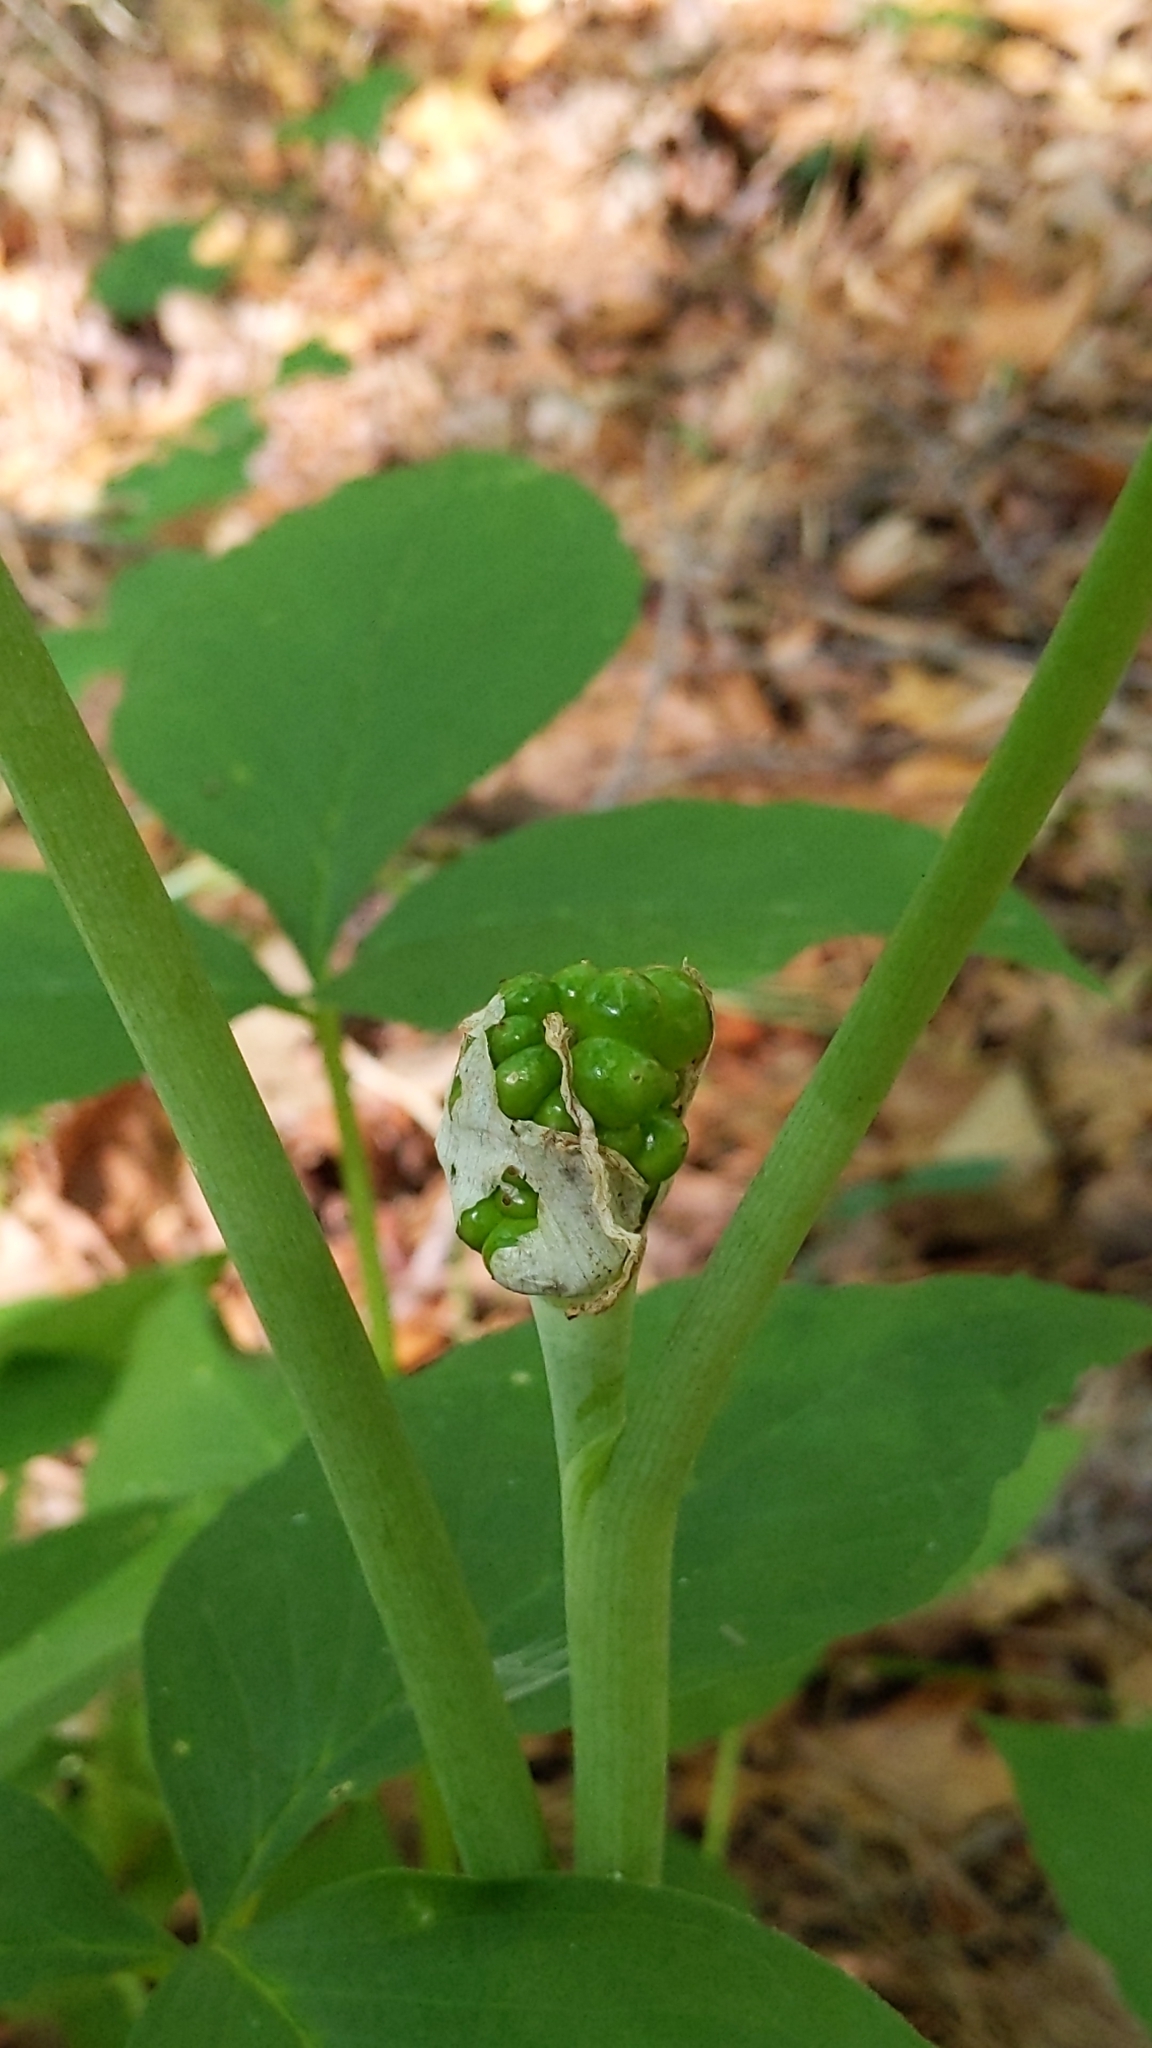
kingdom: Plantae
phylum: Tracheophyta
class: Liliopsida
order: Alismatales
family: Araceae
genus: Arisaema
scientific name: Arisaema triphyllum
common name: Jack-in-the-pulpit
